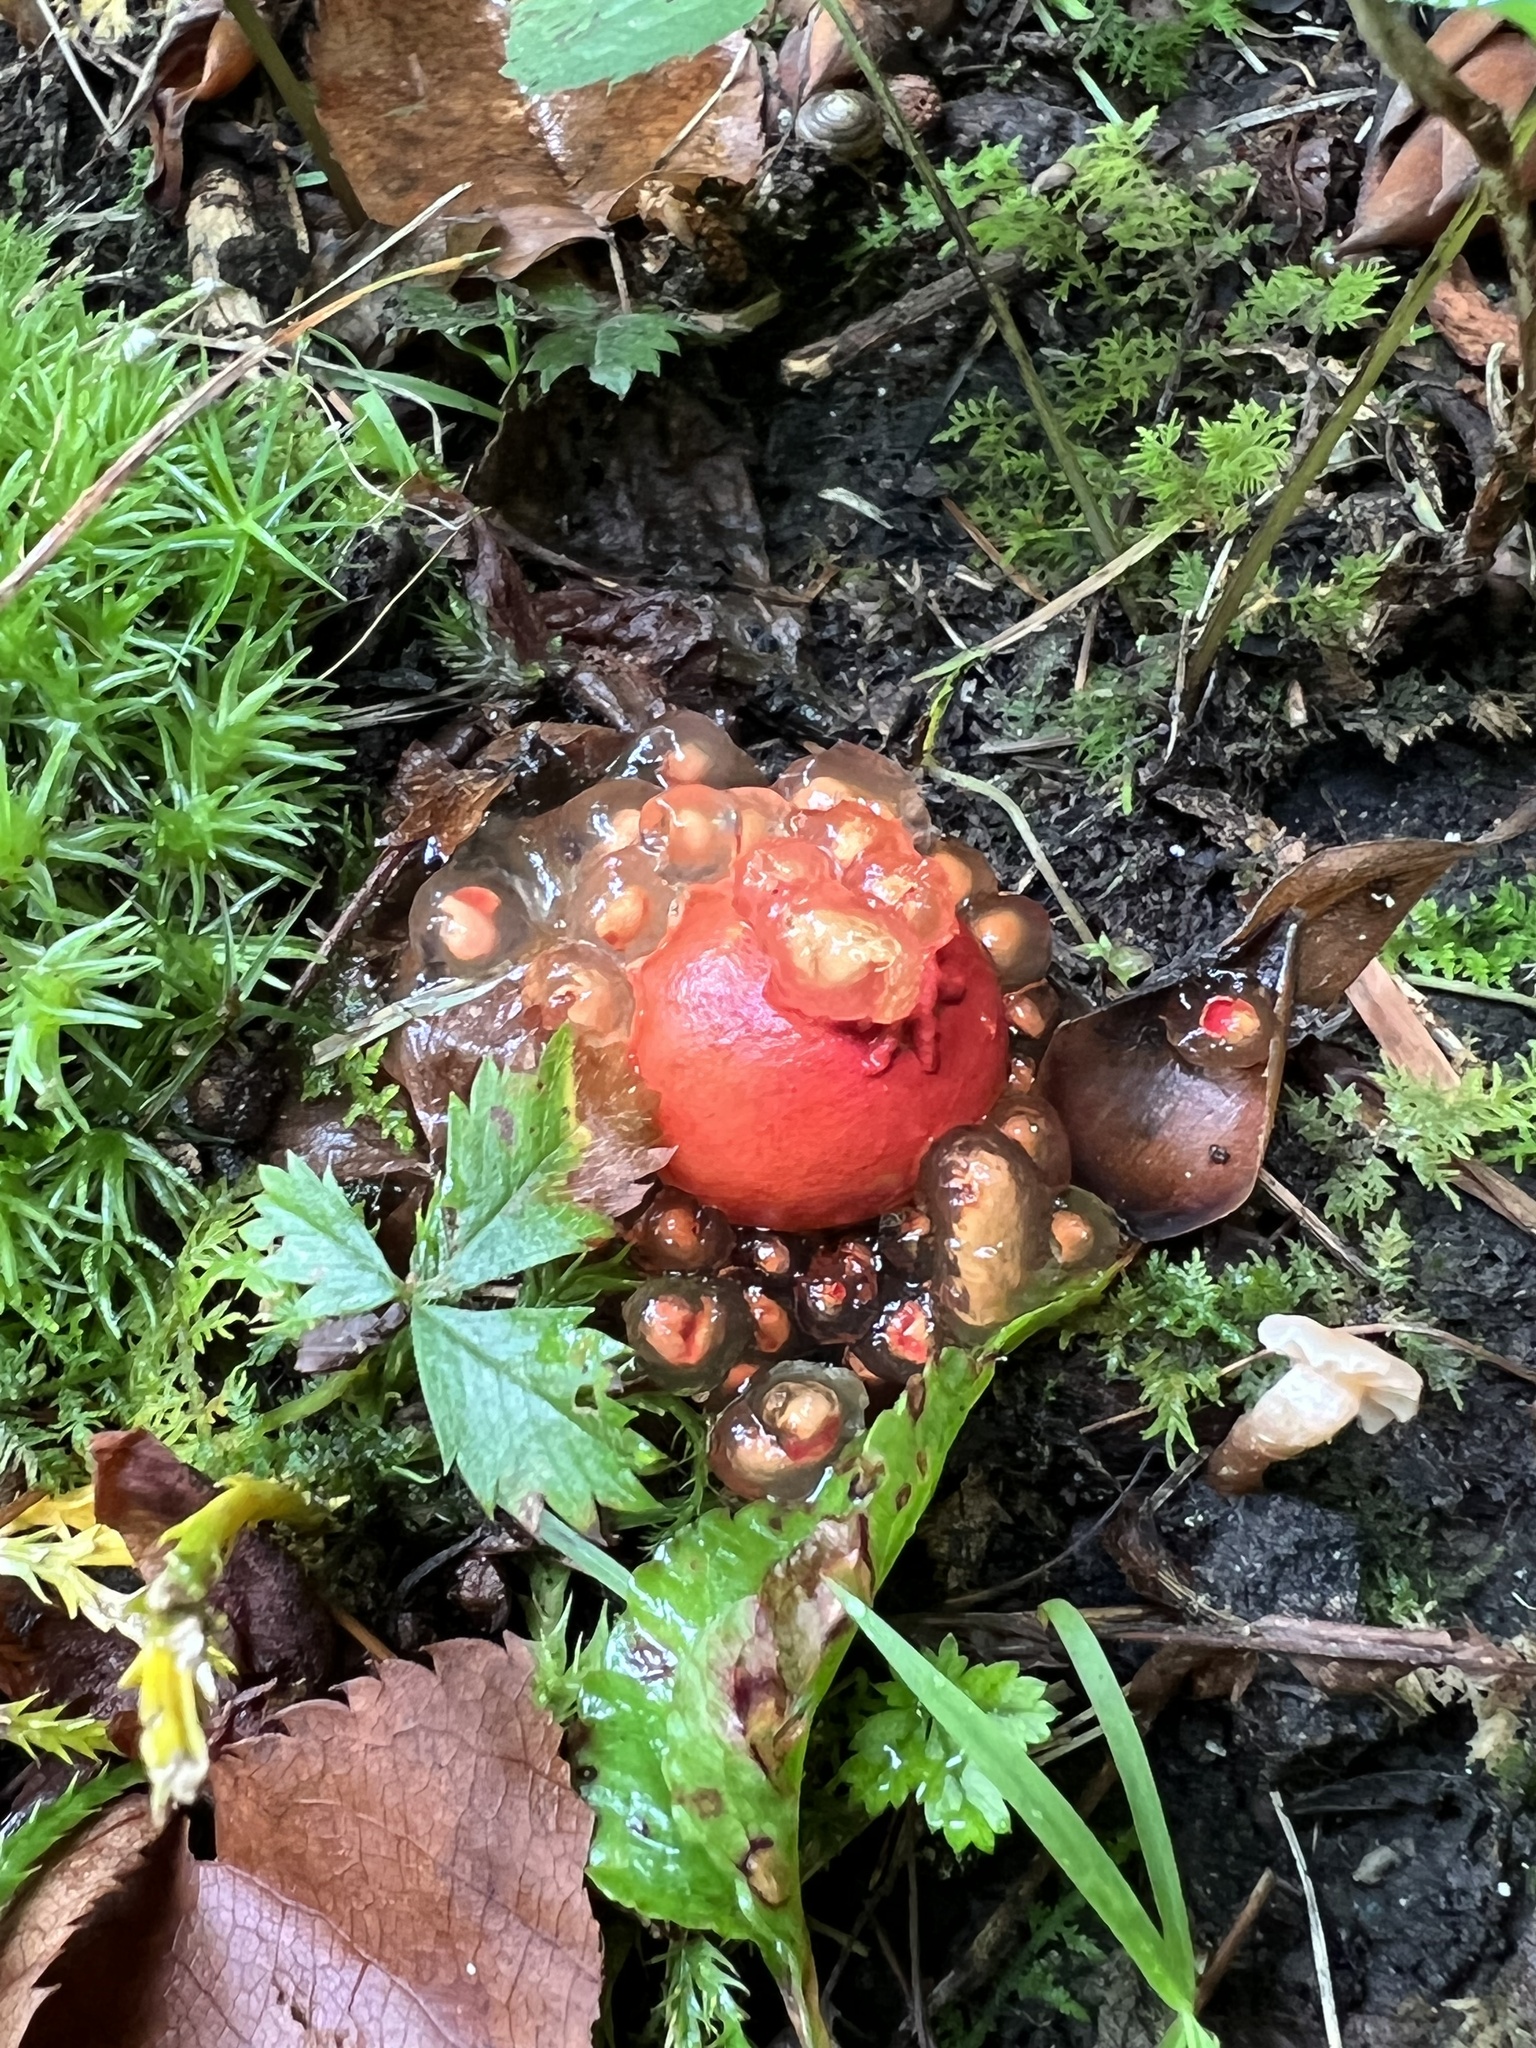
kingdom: Fungi
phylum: Basidiomycota
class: Agaricomycetes
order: Boletales
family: Calostomataceae
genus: Calostoma
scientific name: Calostoma cinnabarinum
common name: Stalked puffball-in-aspic
